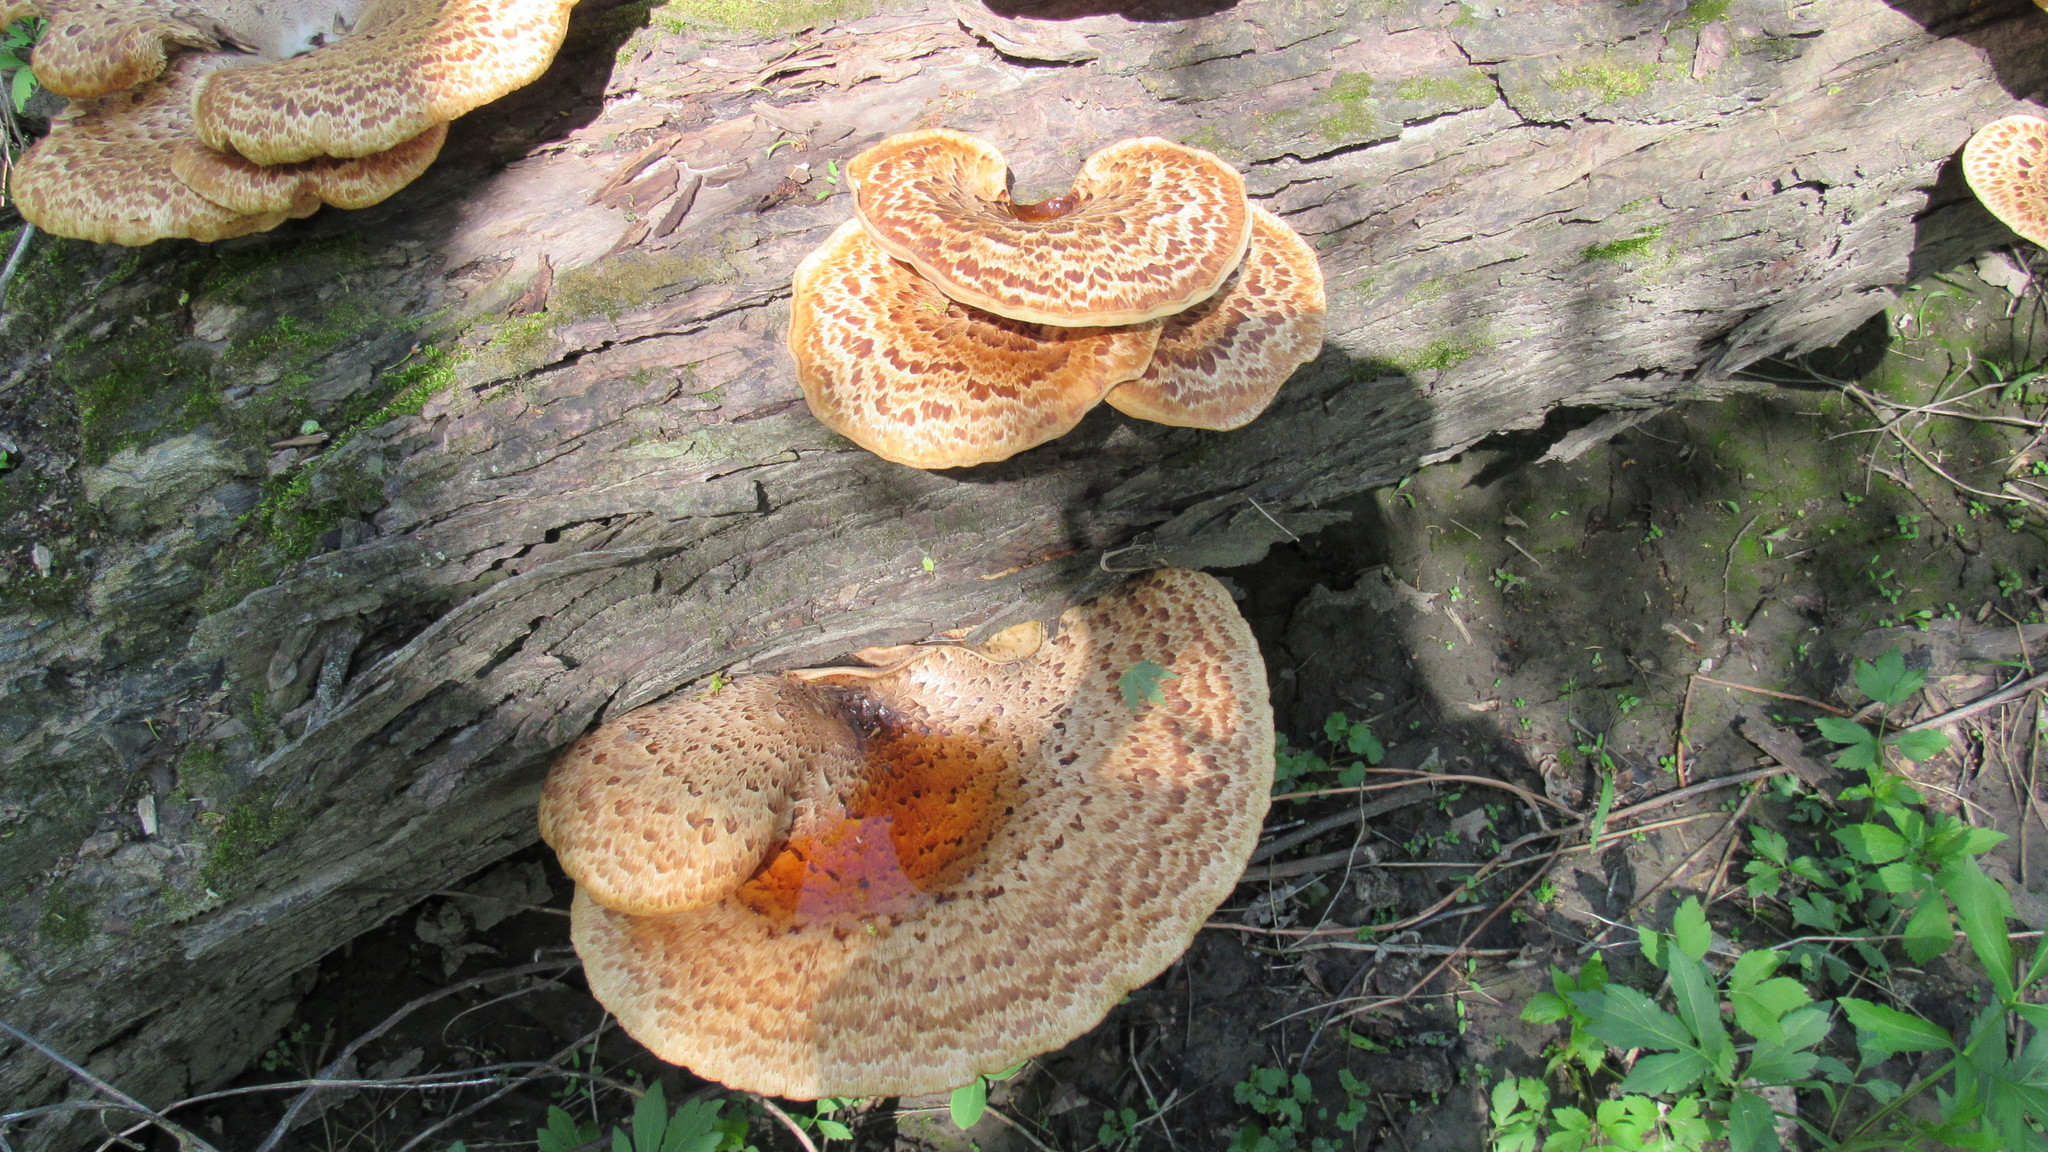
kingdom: Fungi
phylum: Basidiomycota
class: Agaricomycetes
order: Polyporales
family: Polyporaceae
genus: Cerioporus
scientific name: Cerioporus squamosus
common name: Dryad's saddle
